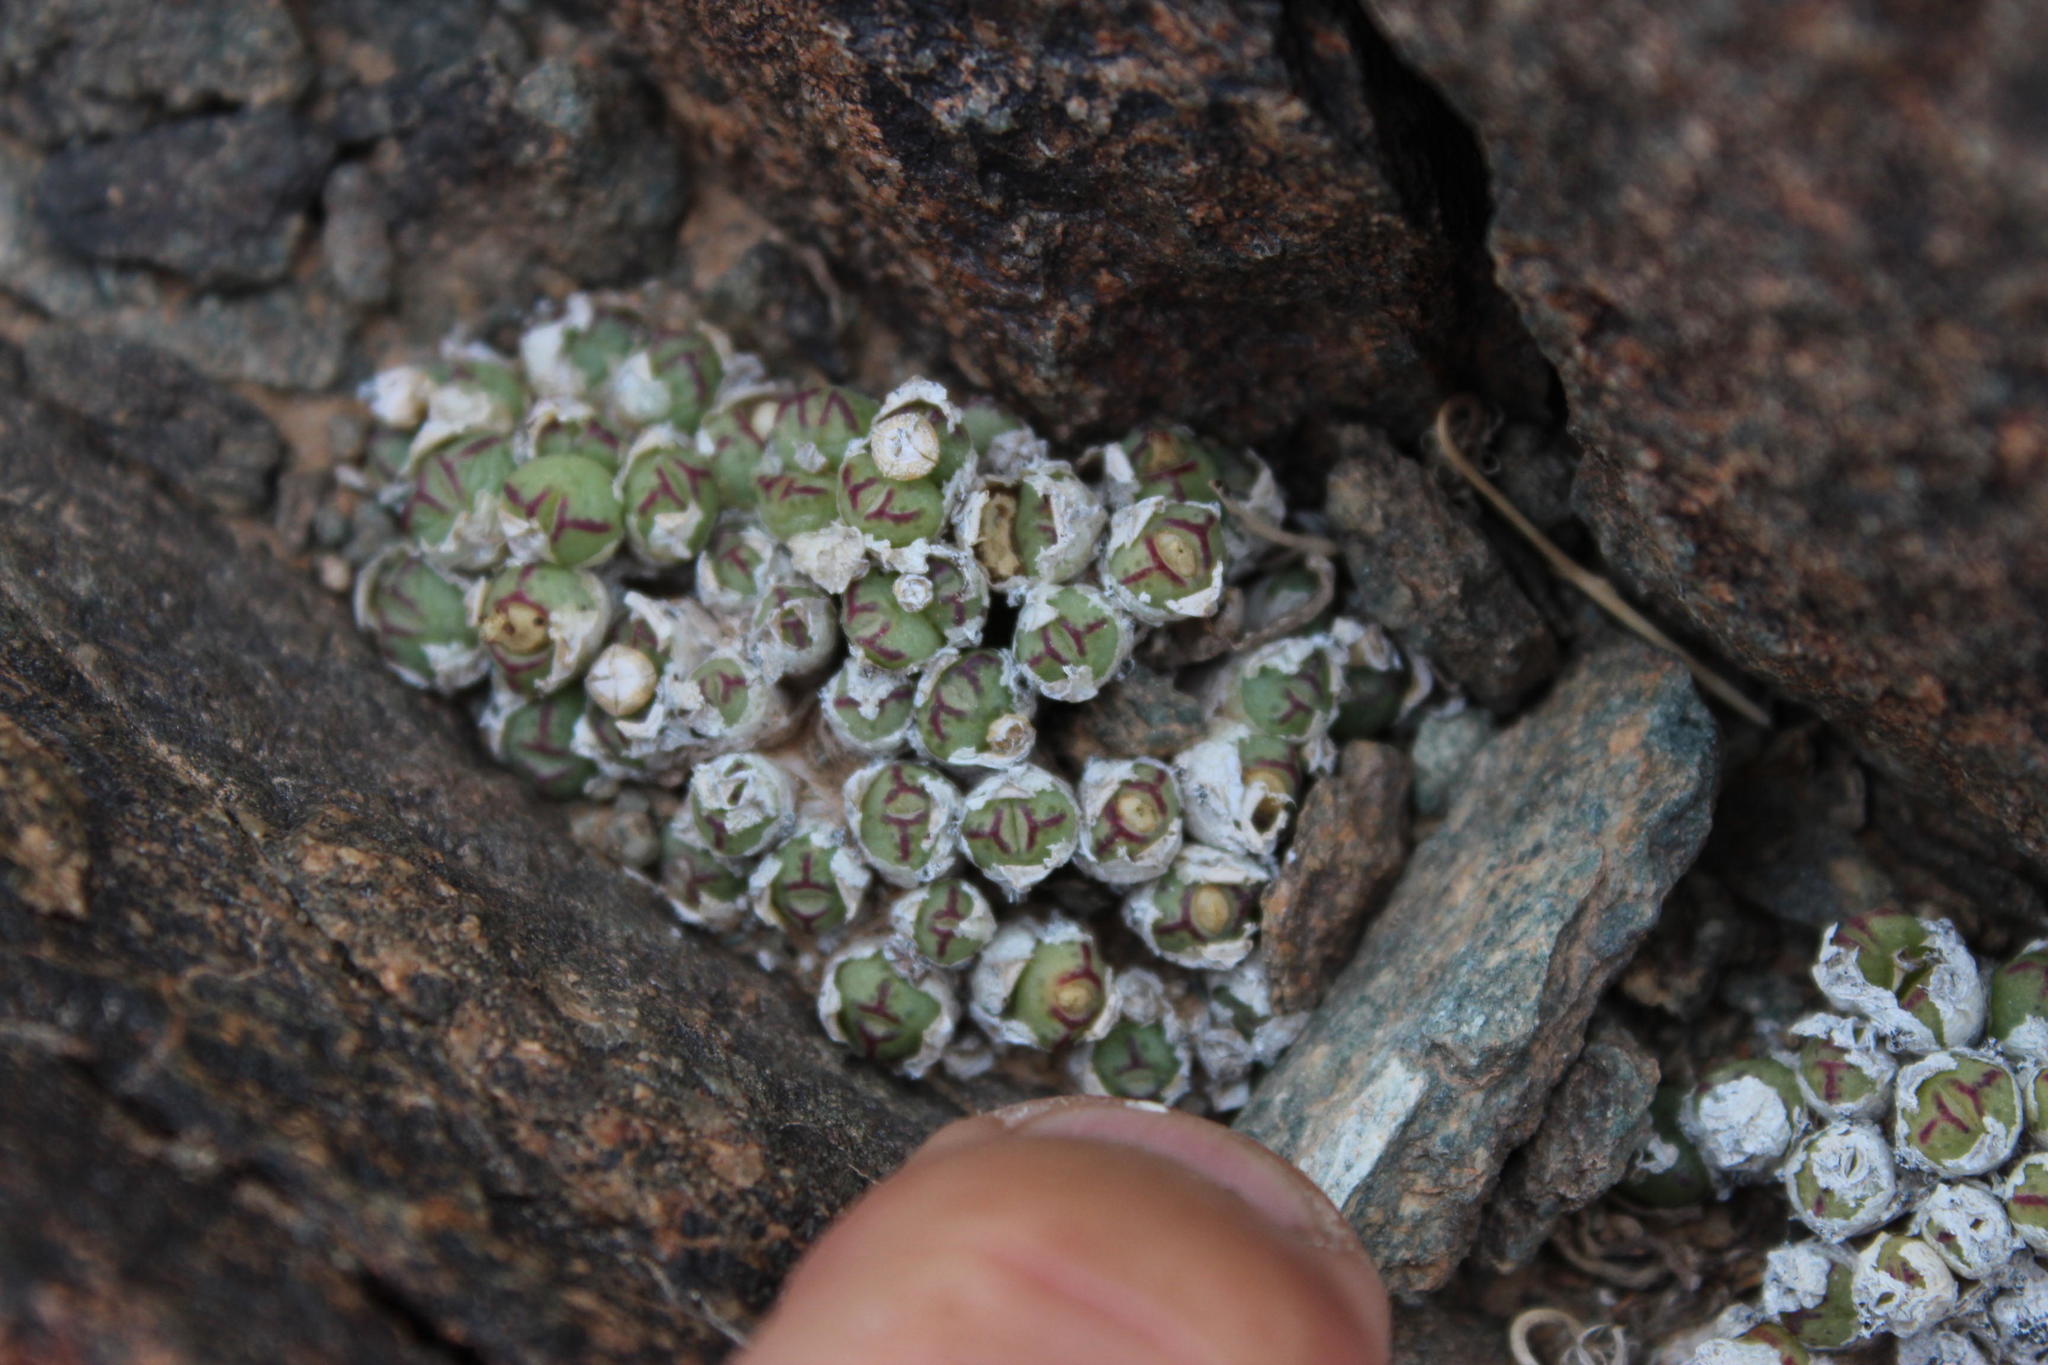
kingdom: Plantae
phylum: Tracheophyta
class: Magnoliopsida
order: Caryophyllales
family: Aizoaceae
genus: Conophytum
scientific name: Conophytum loeschianum
